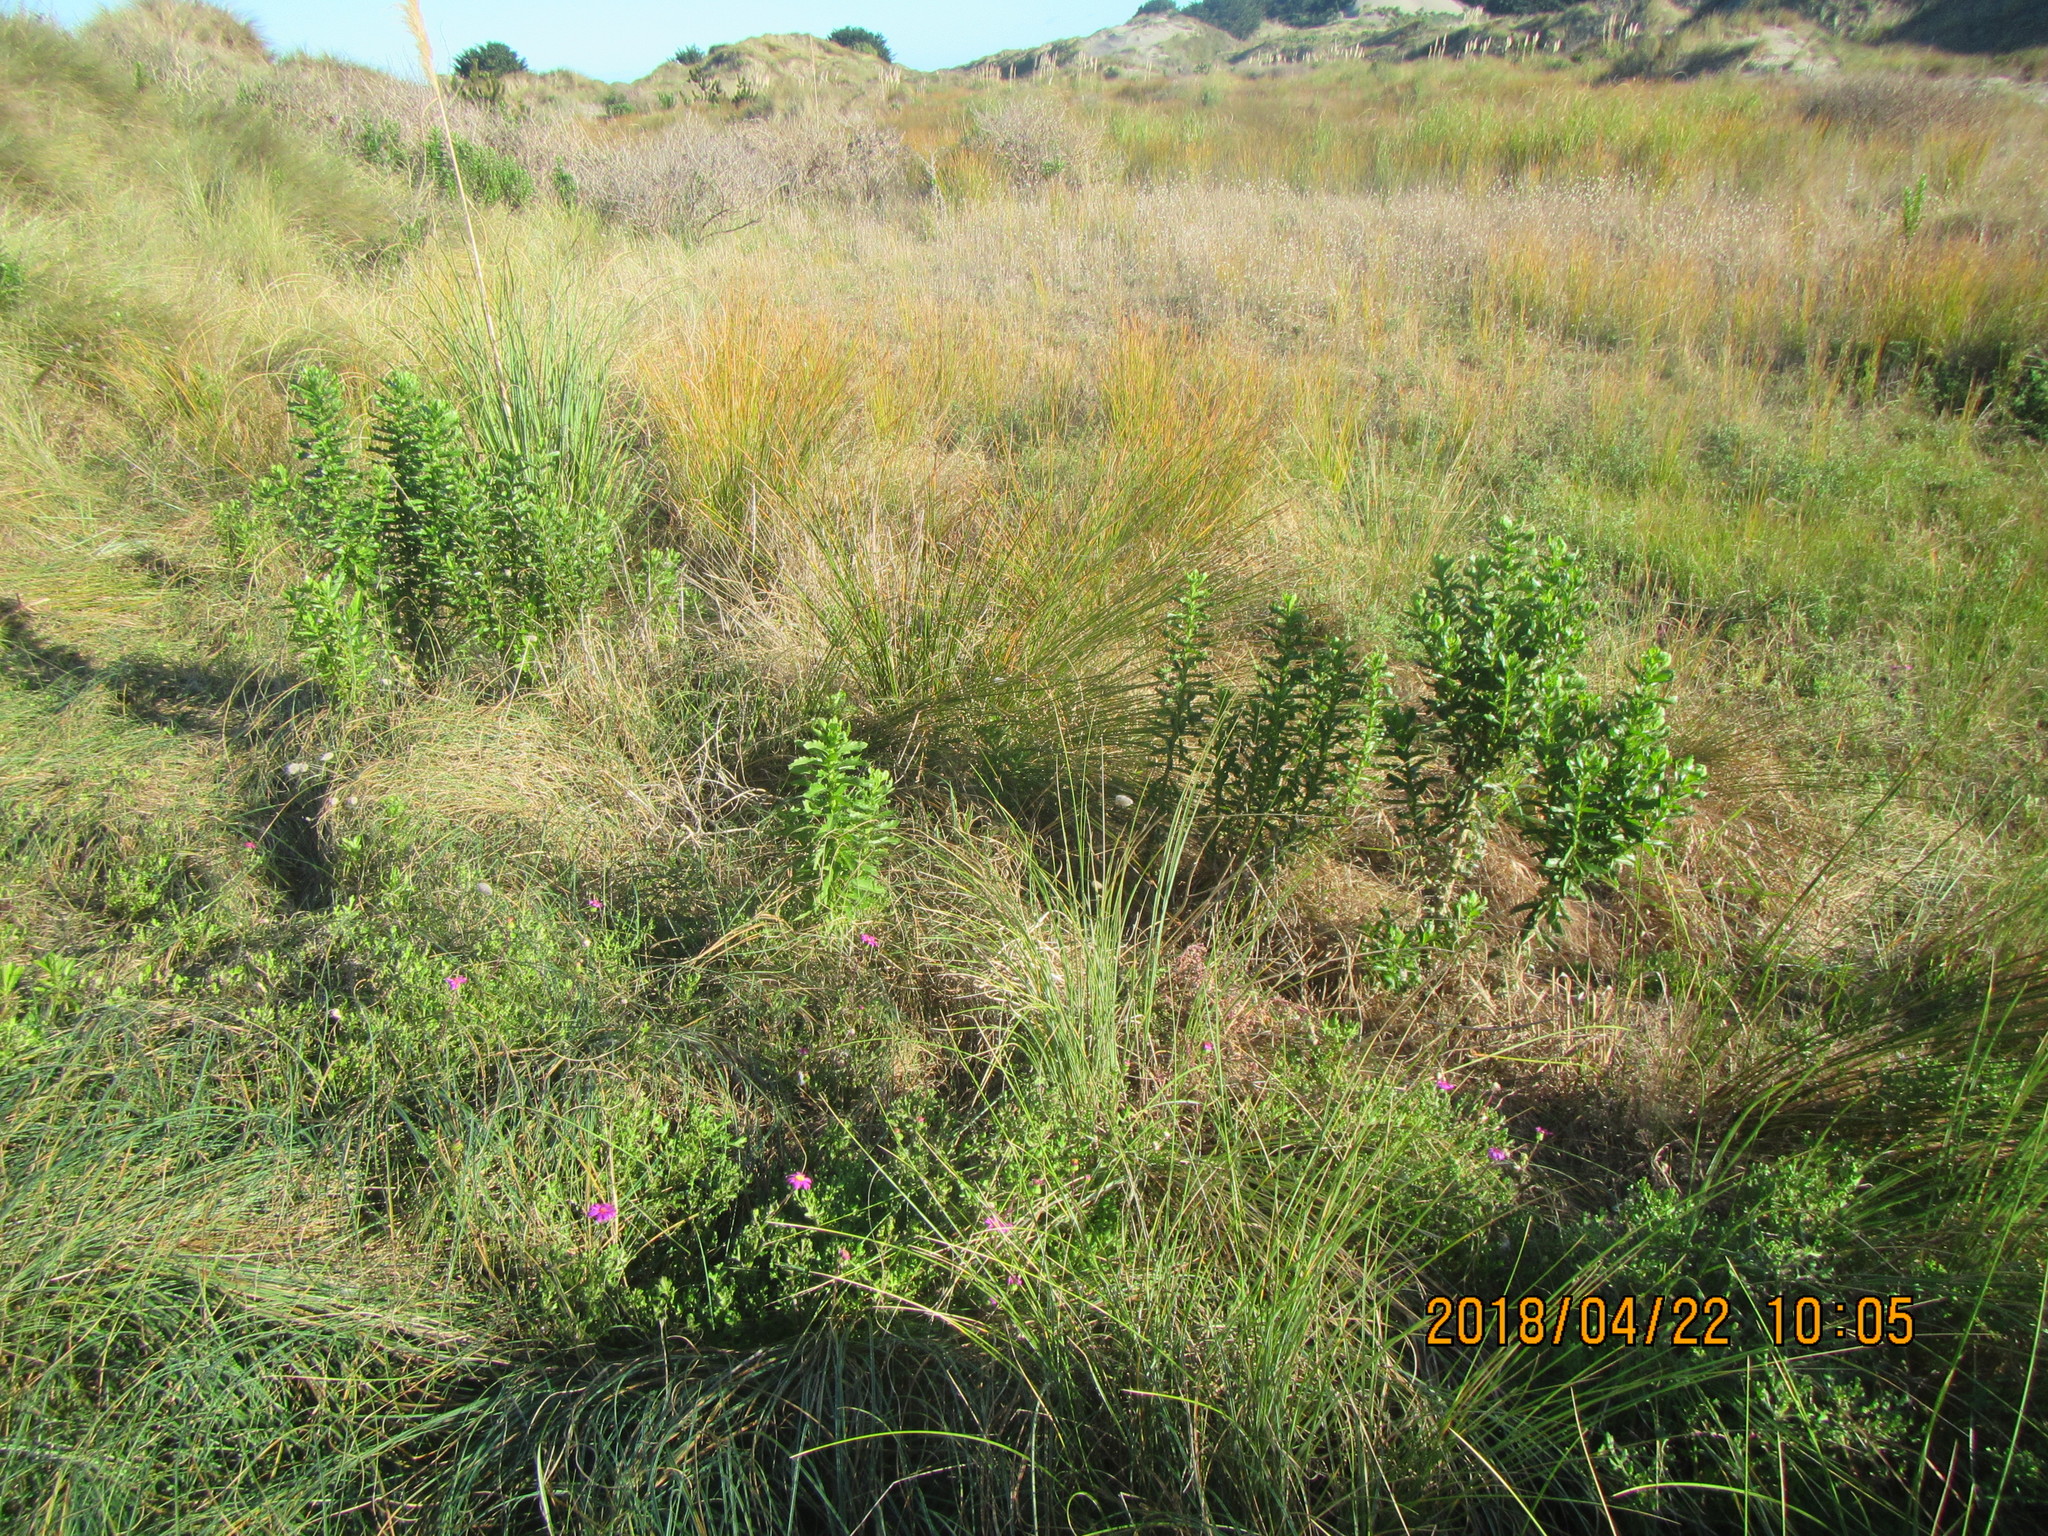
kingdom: Plantae
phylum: Tracheophyta
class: Magnoliopsida
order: Asterales
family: Asteraceae
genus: Senecio
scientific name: Senecio elegans
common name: Purple groundsel
